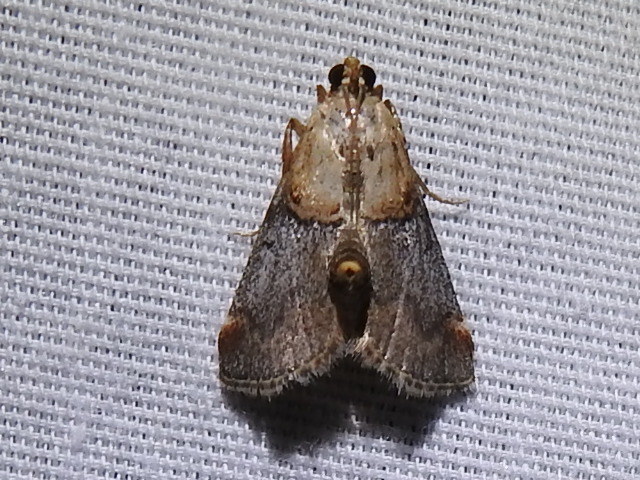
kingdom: Animalia
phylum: Arthropoda
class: Insecta
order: Lepidoptera
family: Pyralidae
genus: Cacozelia
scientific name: Cacozelia basiochrealis
